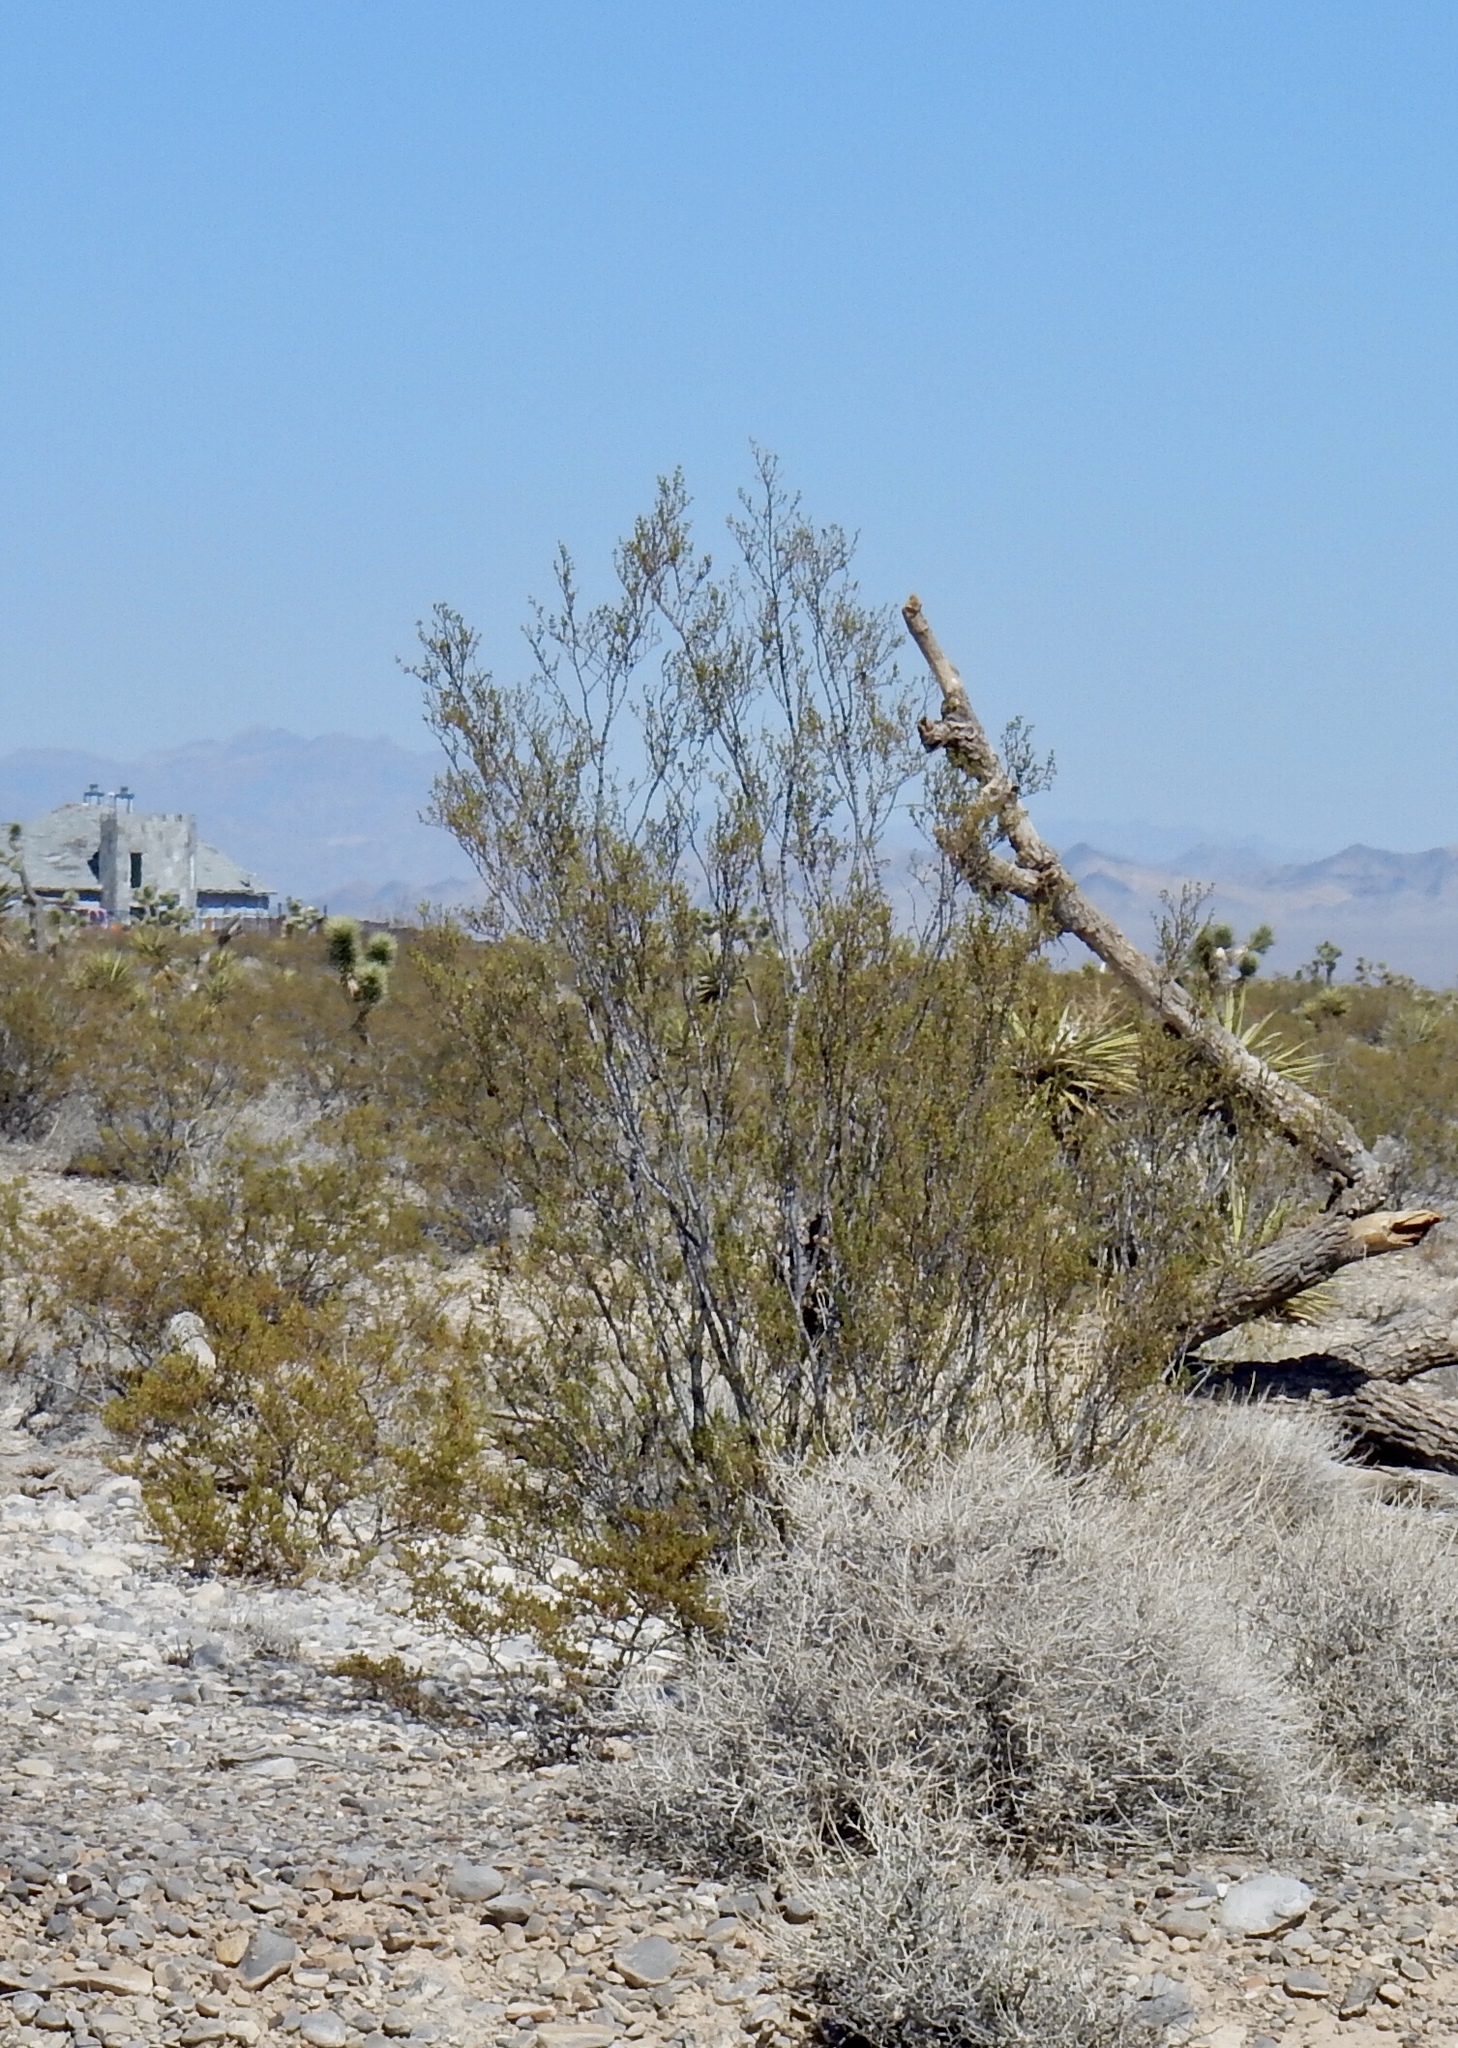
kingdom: Plantae
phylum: Tracheophyta
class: Magnoliopsida
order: Zygophyllales
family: Zygophyllaceae
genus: Larrea
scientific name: Larrea tridentata
